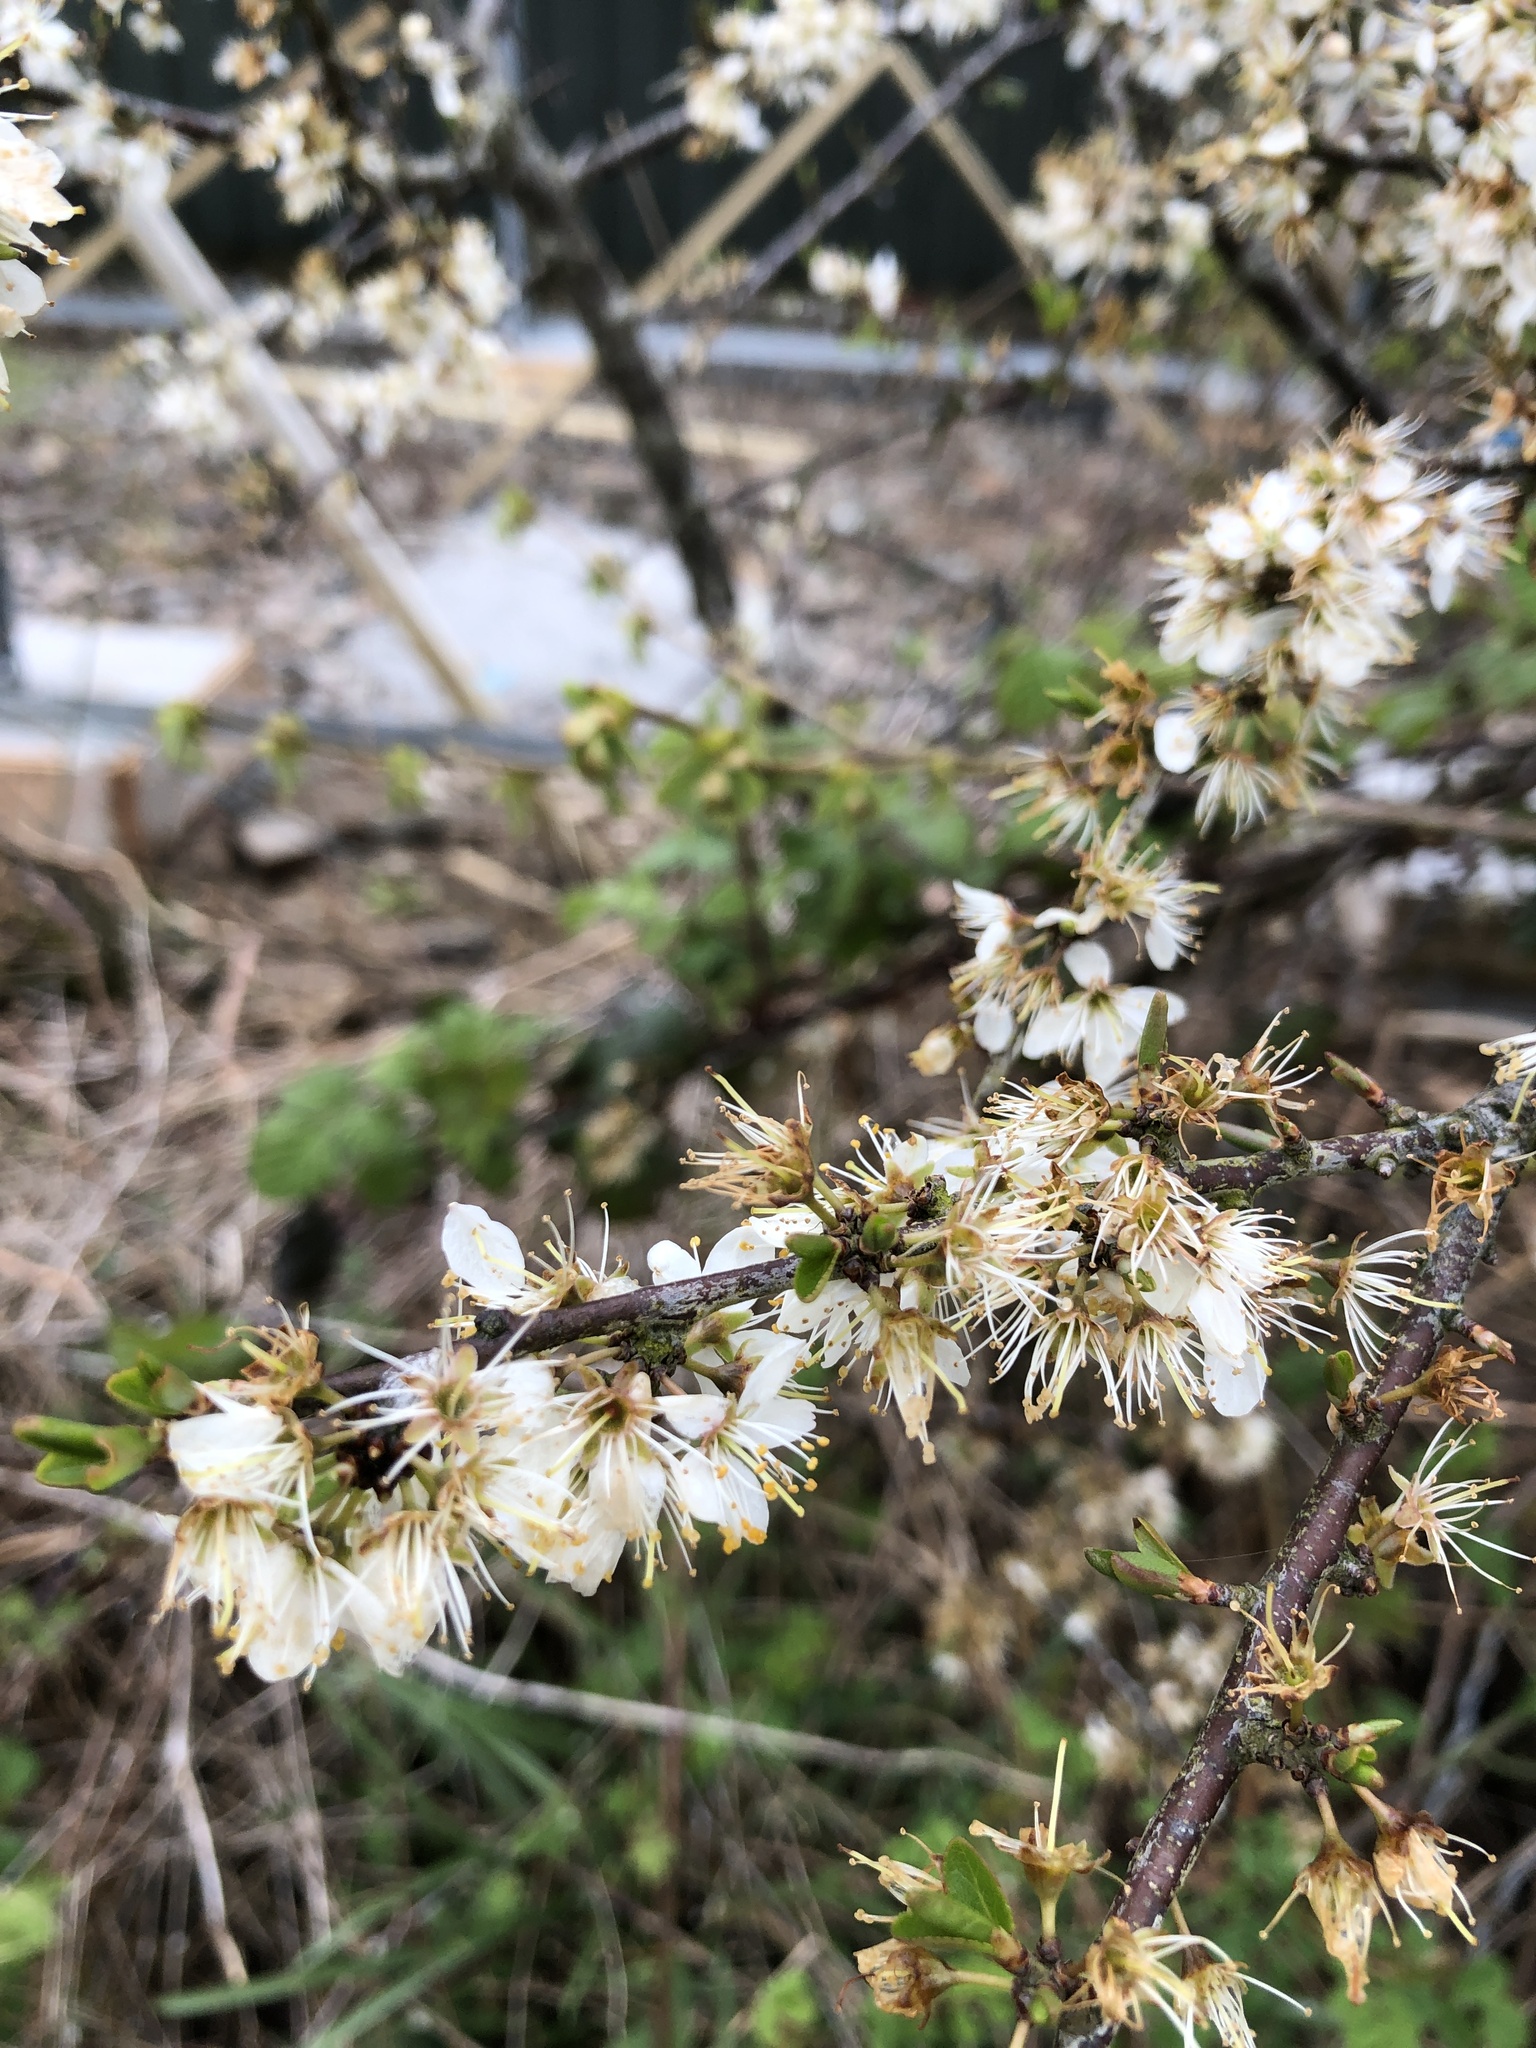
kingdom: Plantae
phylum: Tracheophyta
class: Magnoliopsida
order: Rosales
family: Rosaceae
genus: Prunus
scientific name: Prunus spinosa
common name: Blackthorn
